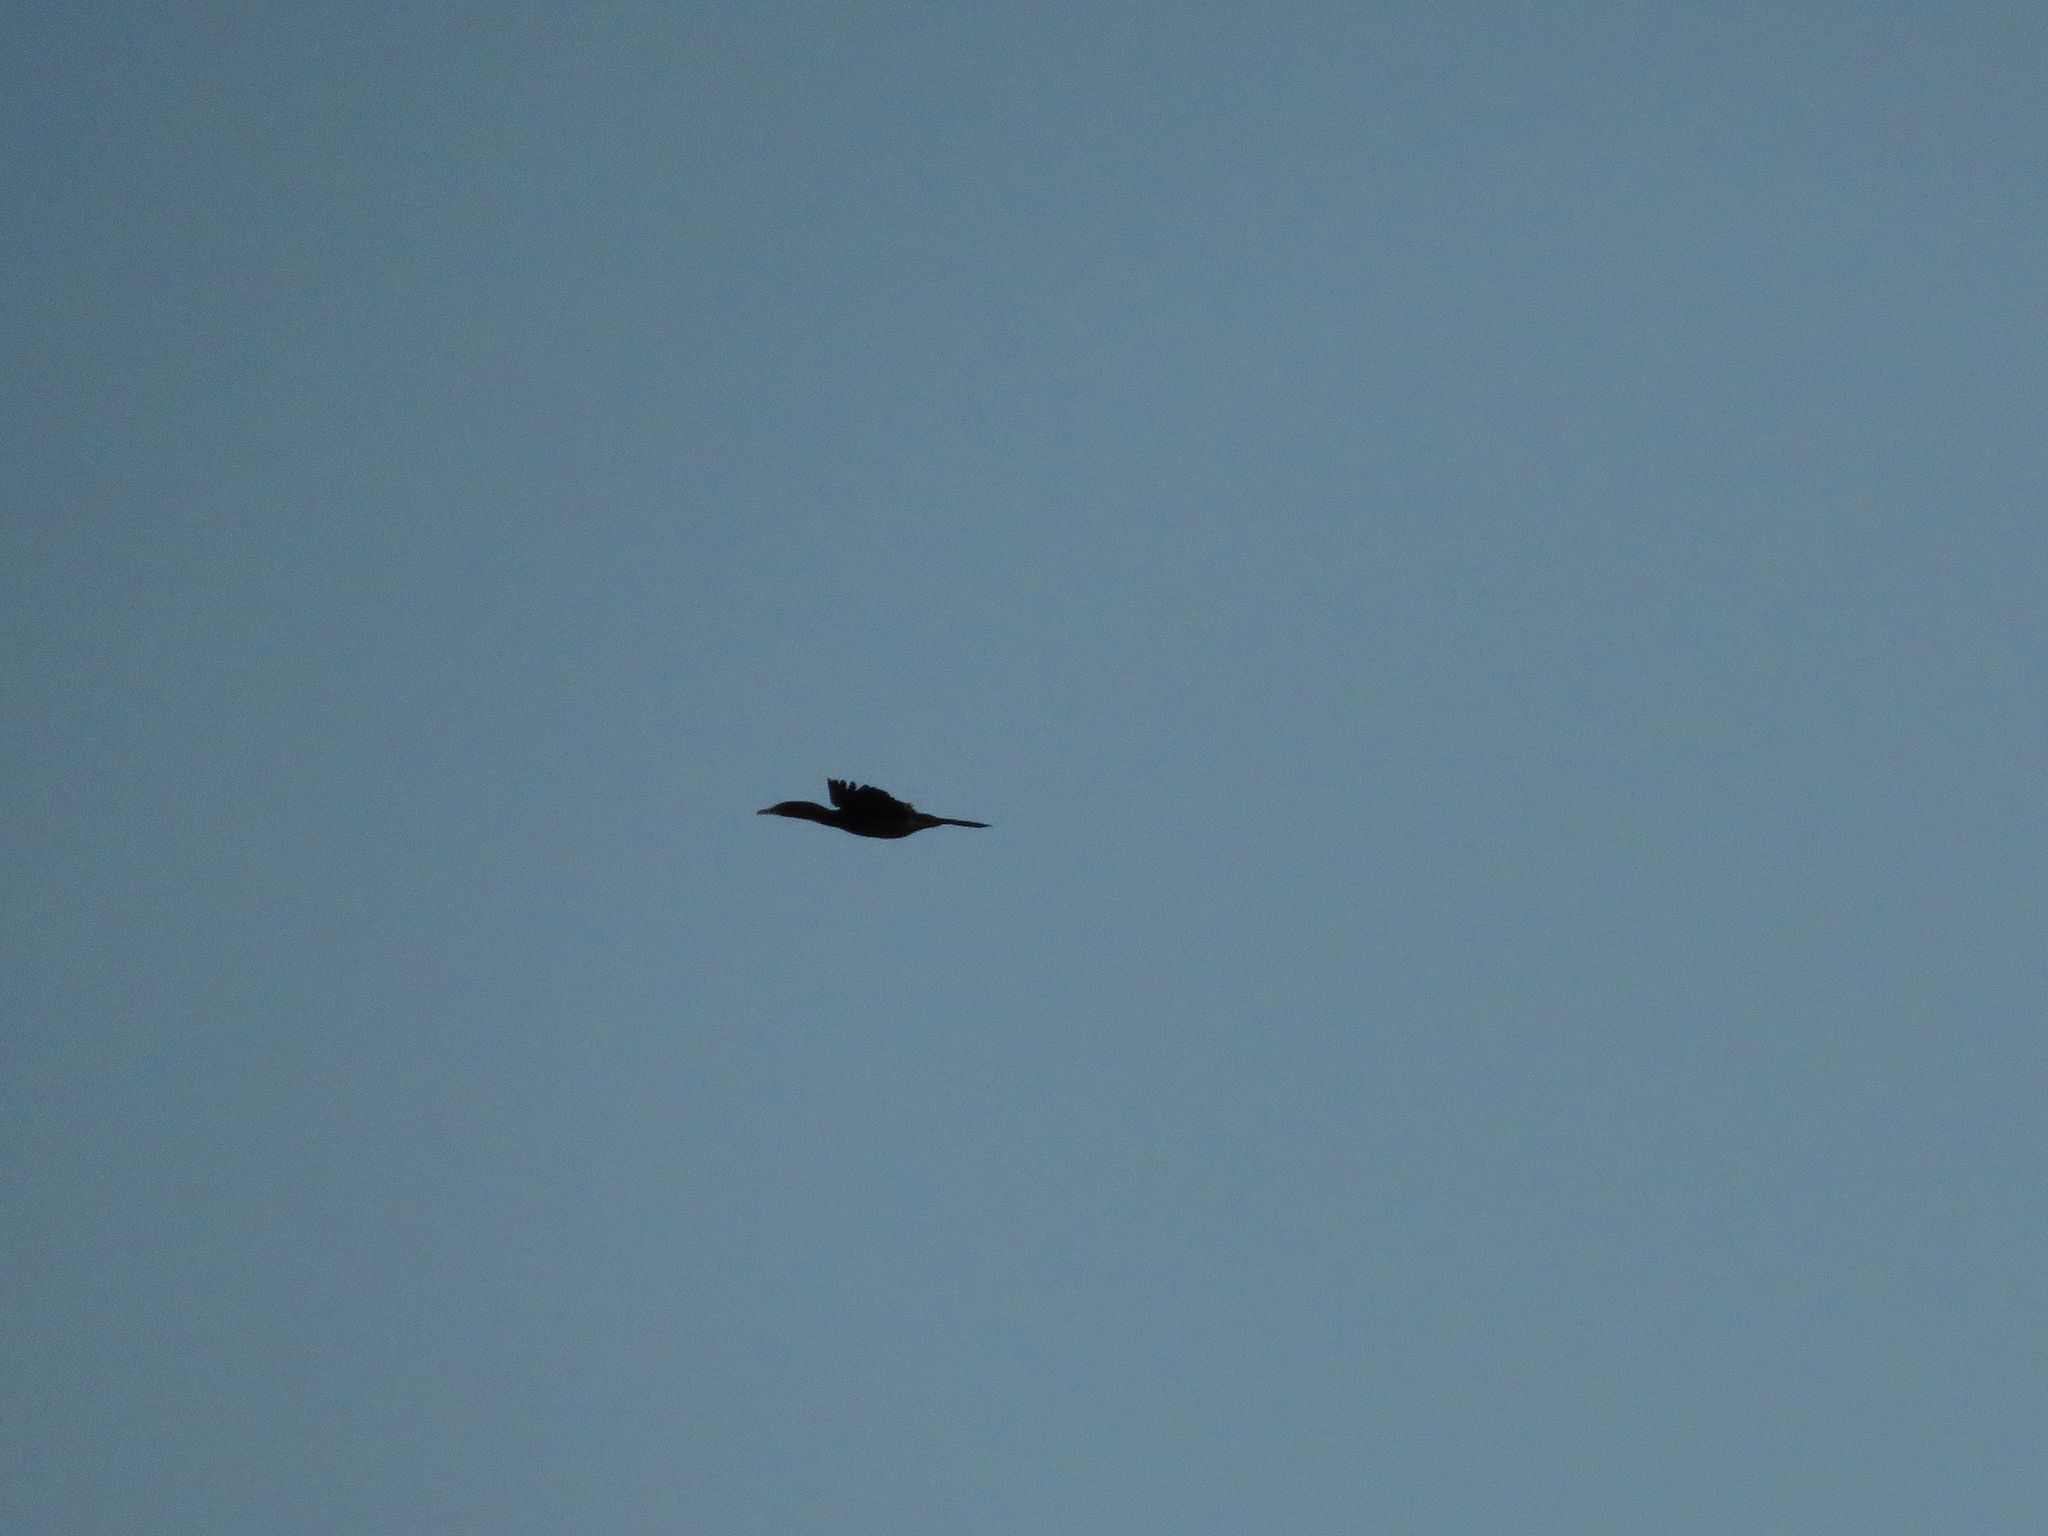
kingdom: Animalia
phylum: Chordata
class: Aves
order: Suliformes
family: Phalacrocoracidae
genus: Phalacrocorax
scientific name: Phalacrocorax brasilianus
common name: Neotropic cormorant
